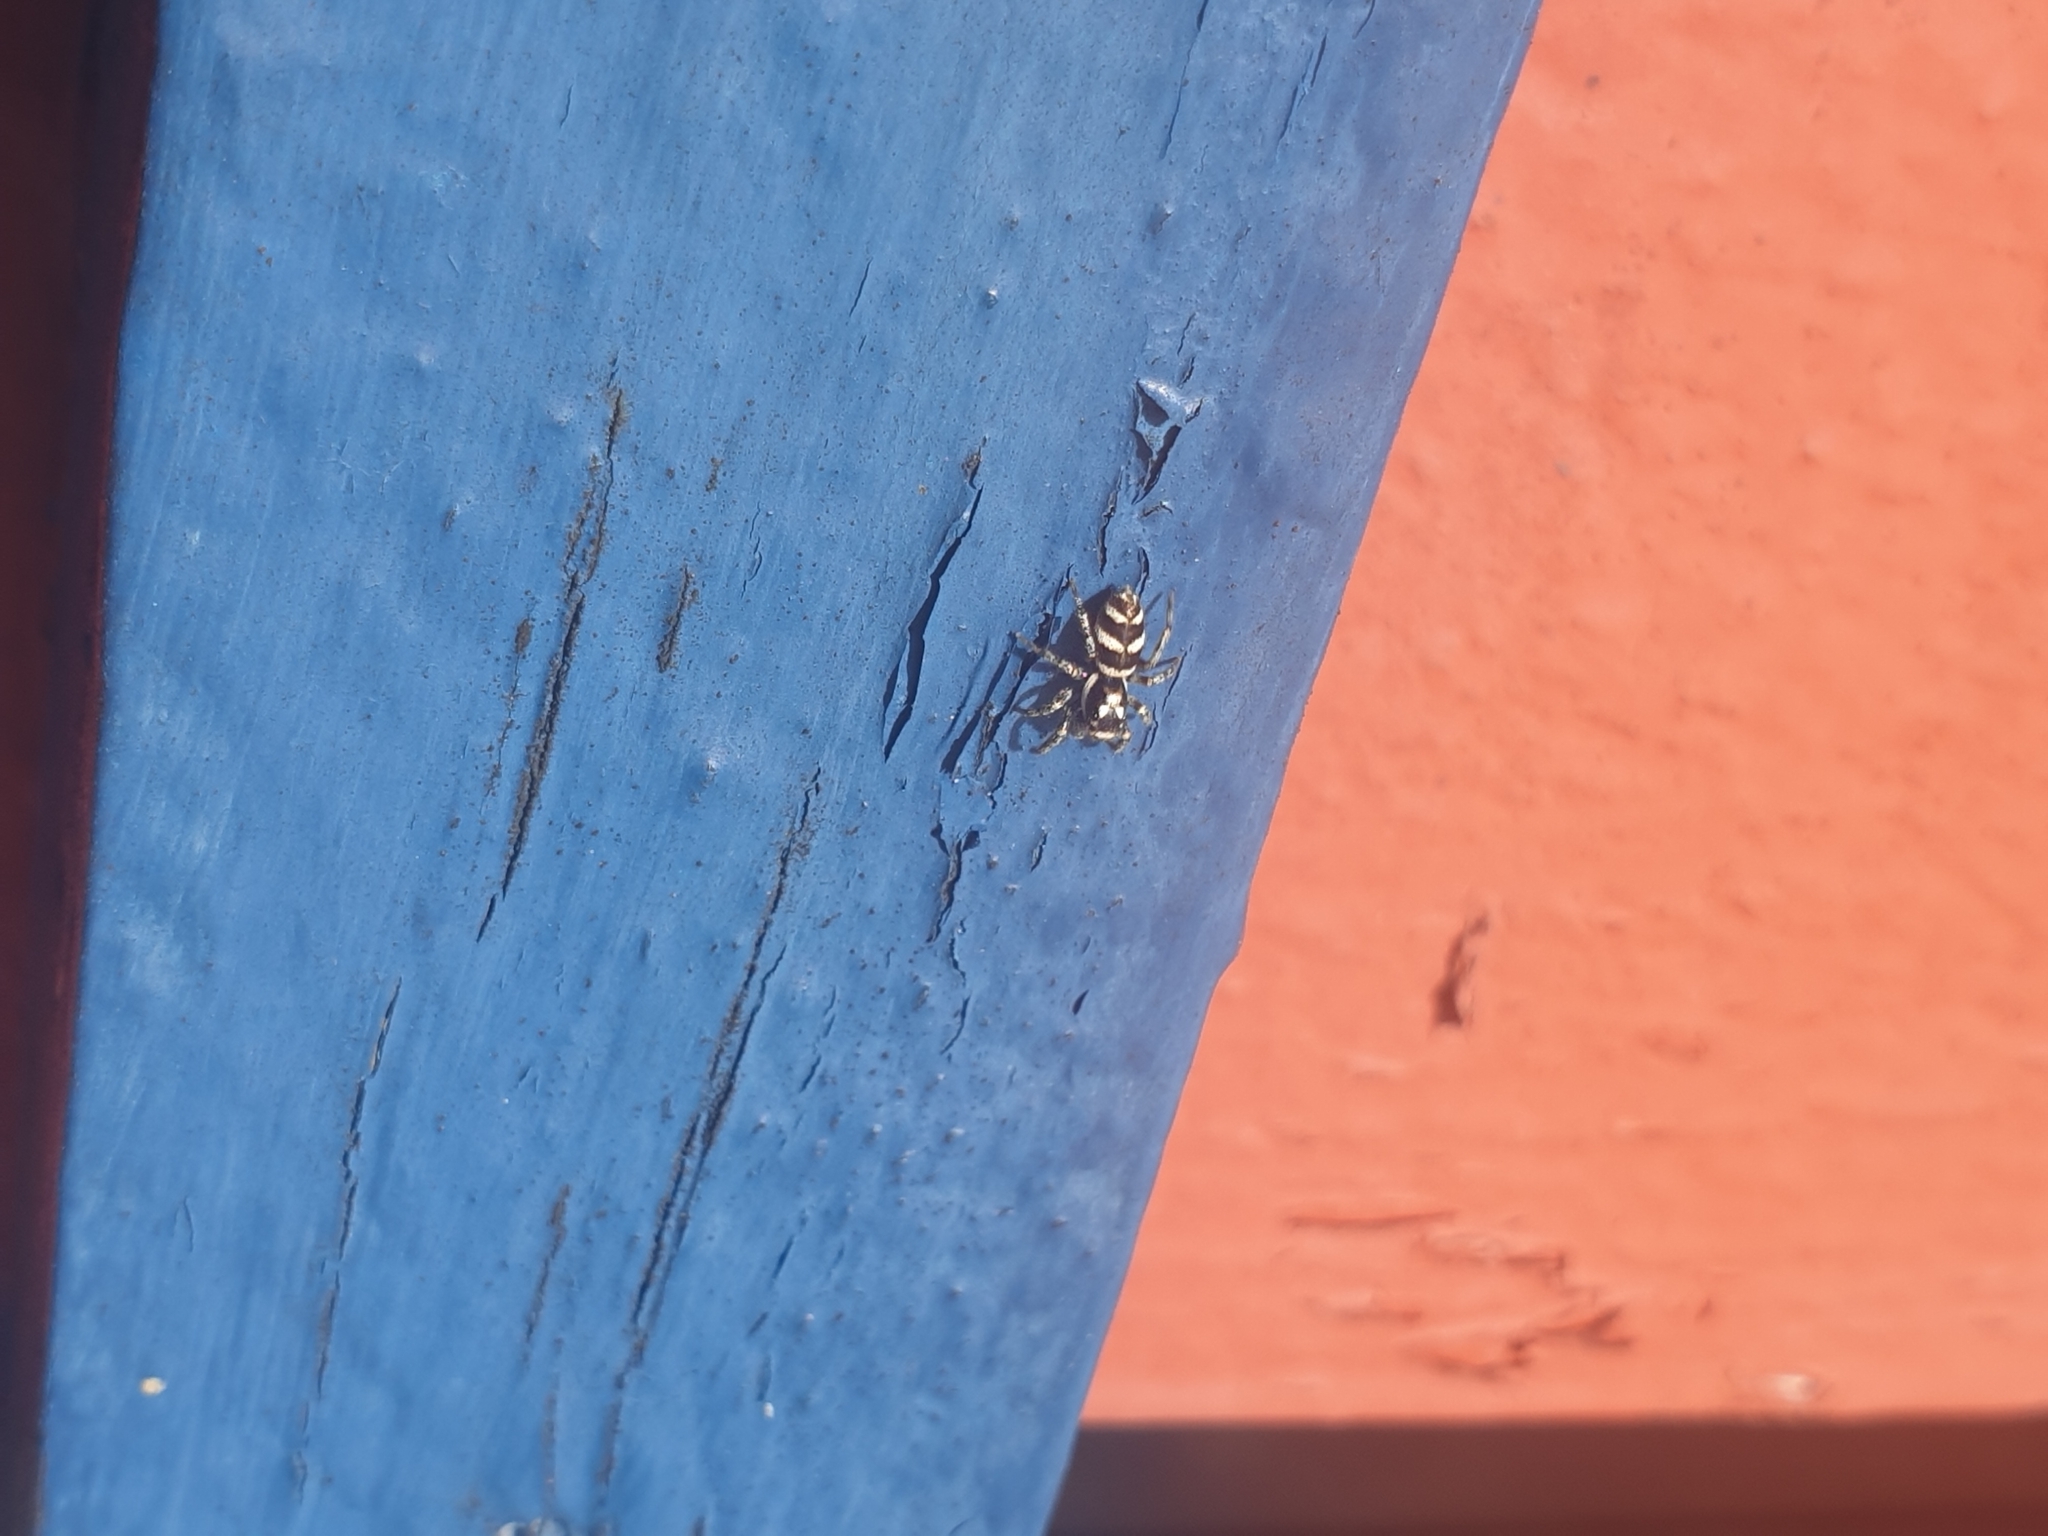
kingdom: Animalia
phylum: Arthropoda
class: Arachnida
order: Araneae
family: Salticidae
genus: Salticus
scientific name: Salticus scenicus
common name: Zebra jumper
